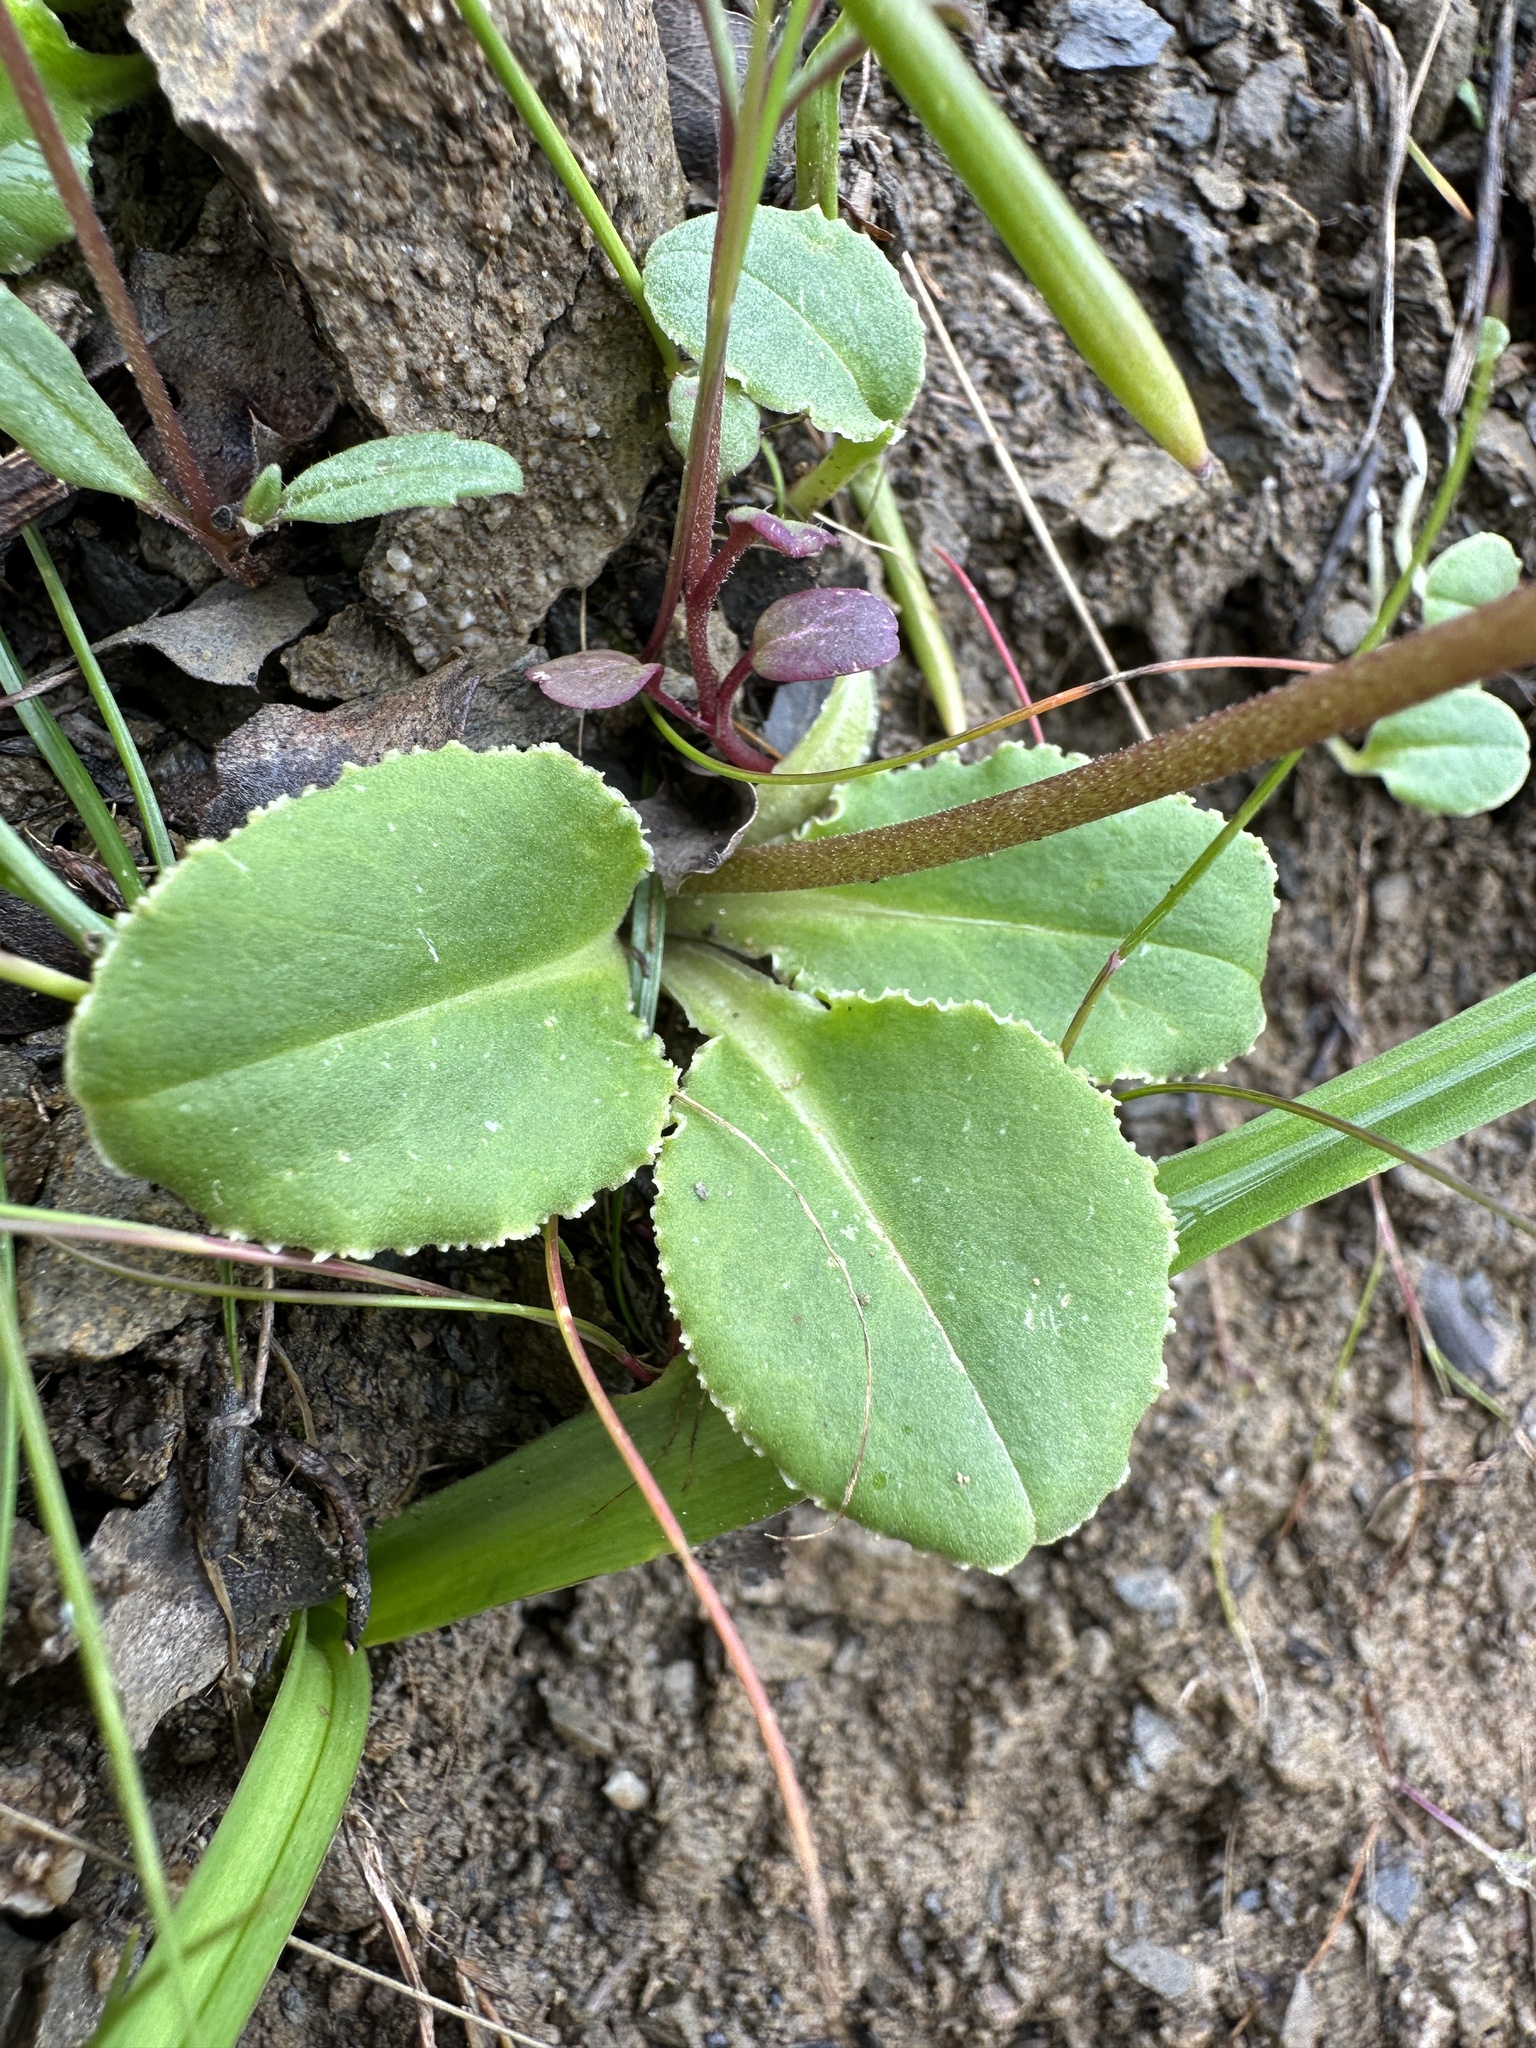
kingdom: Plantae
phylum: Tracheophyta
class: Magnoliopsida
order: Ericales
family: Primulaceae
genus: Dodecatheon
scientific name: Dodecatheon hendersonii
